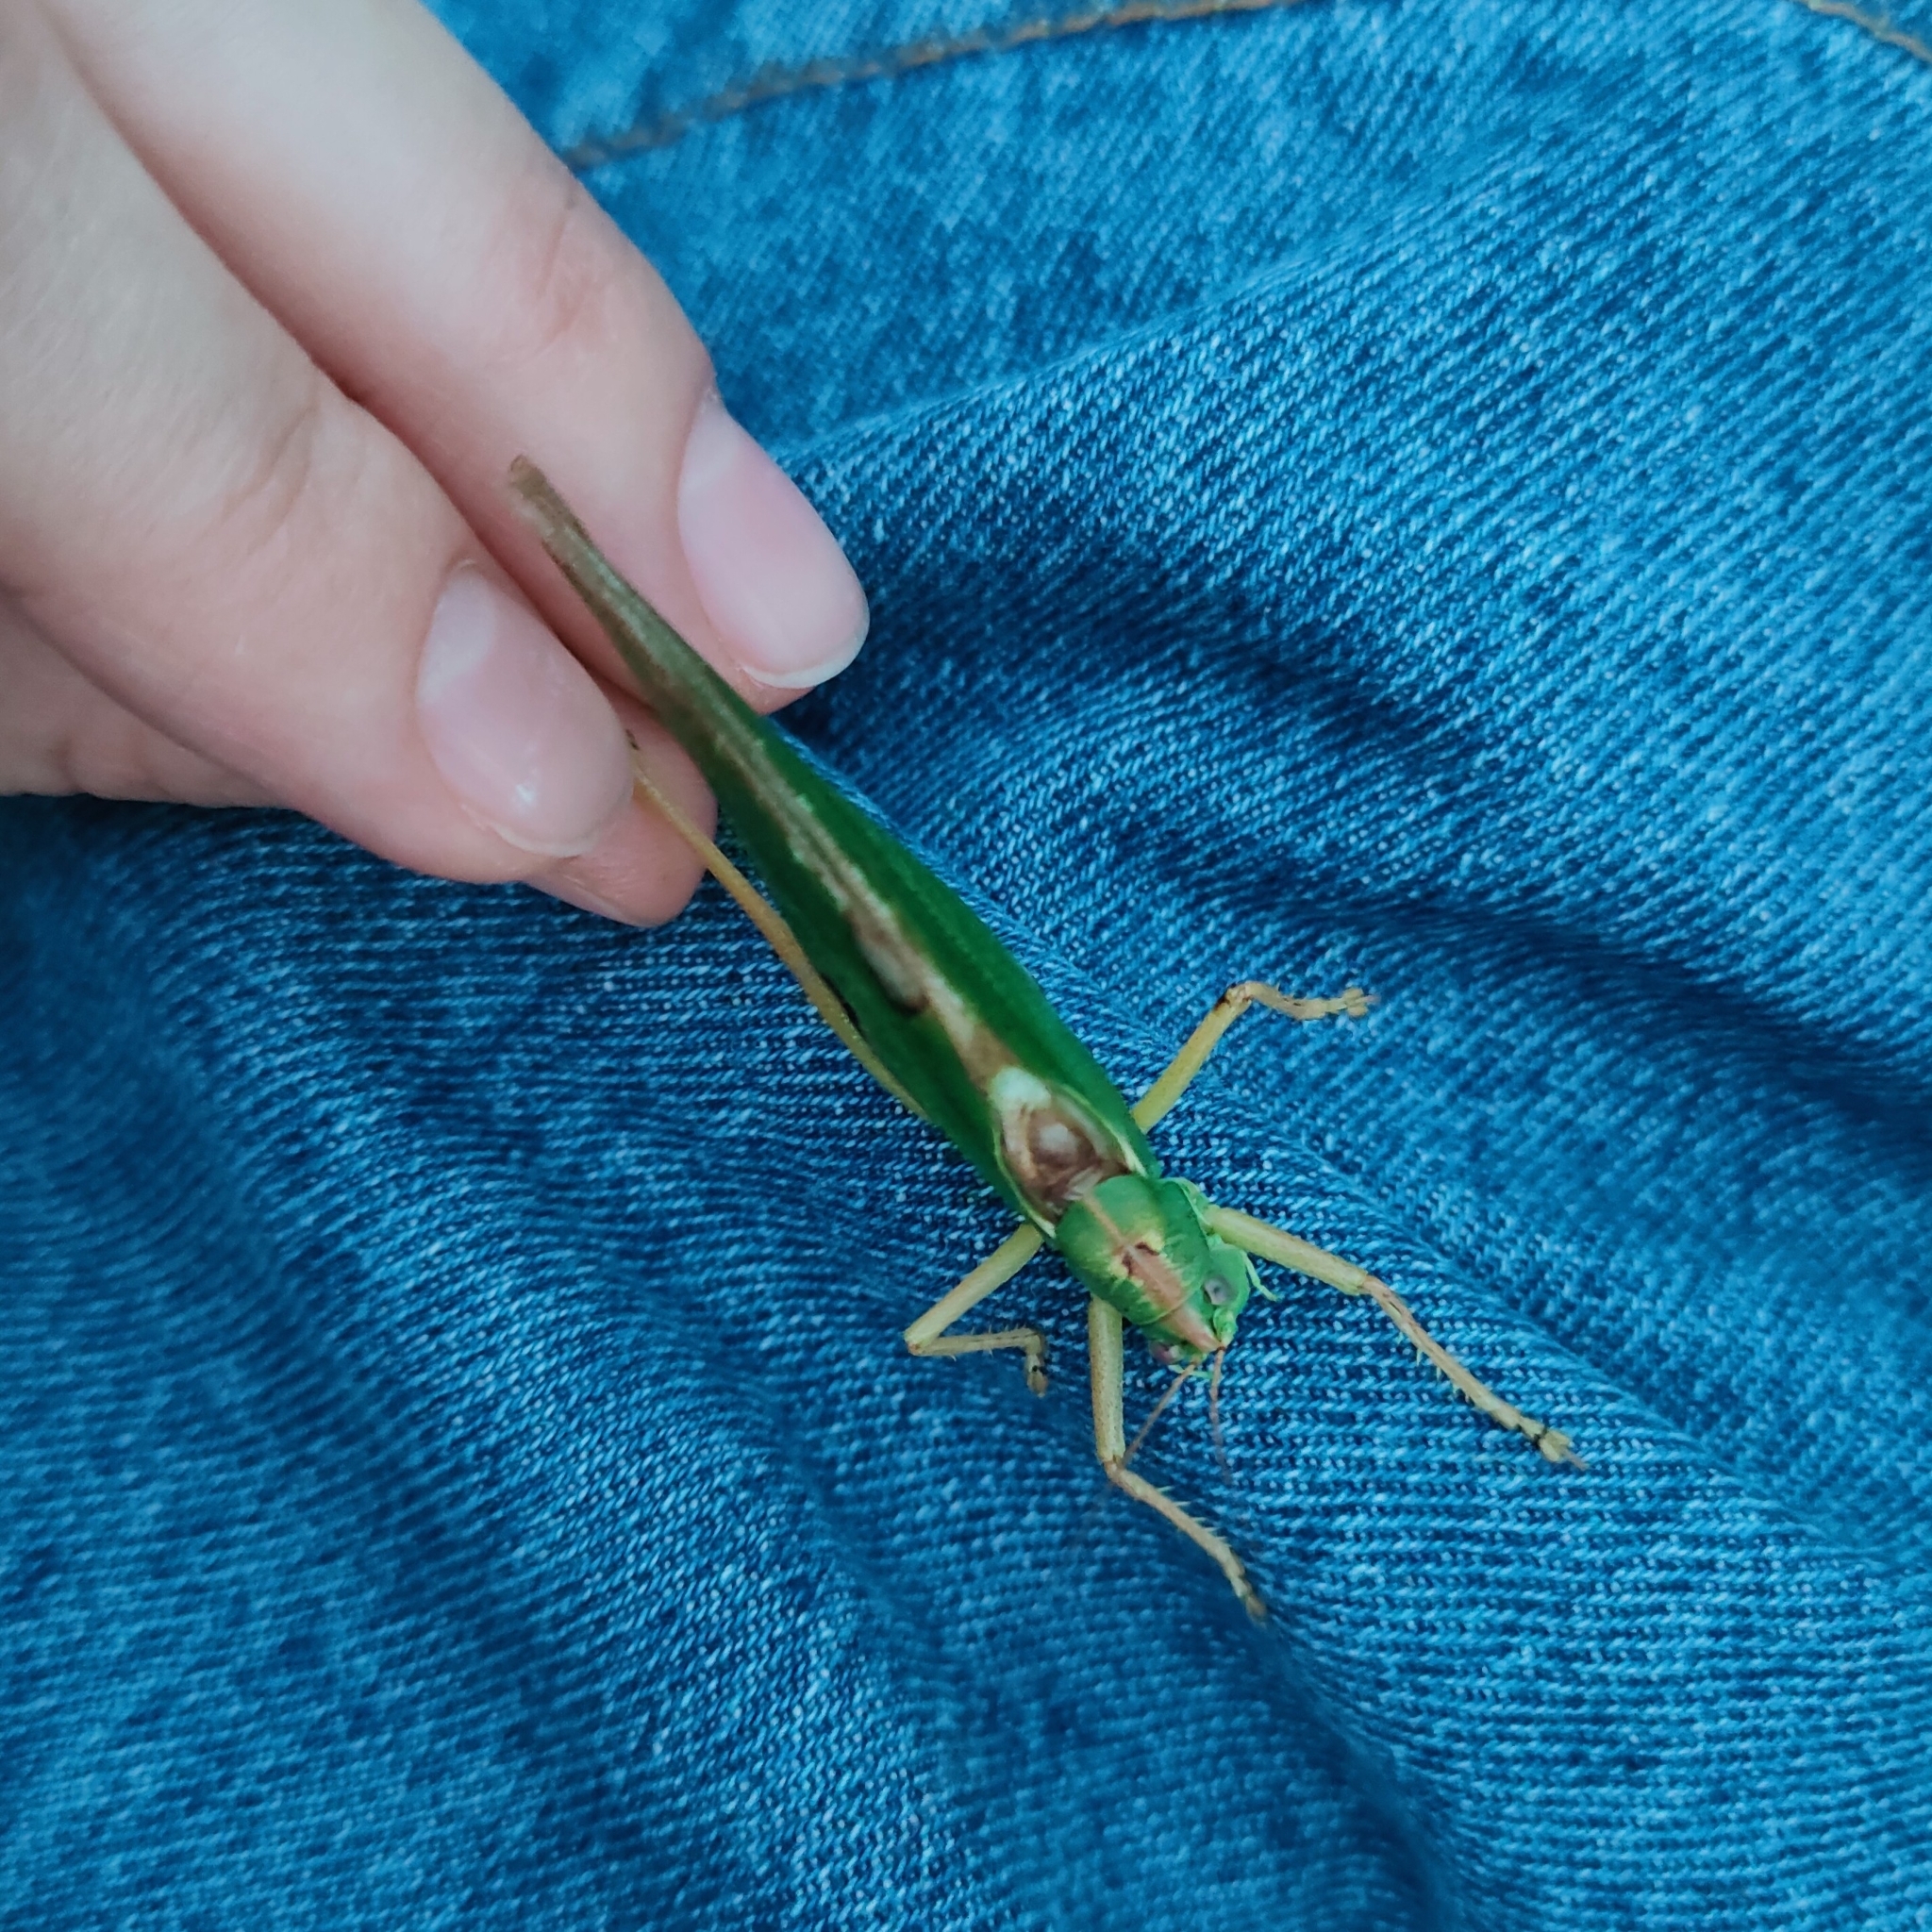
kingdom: Animalia
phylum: Arthropoda
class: Insecta
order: Orthoptera
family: Tettigoniidae
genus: Tettigonia
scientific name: Tettigonia viridissima
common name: Great green bush-cricket
